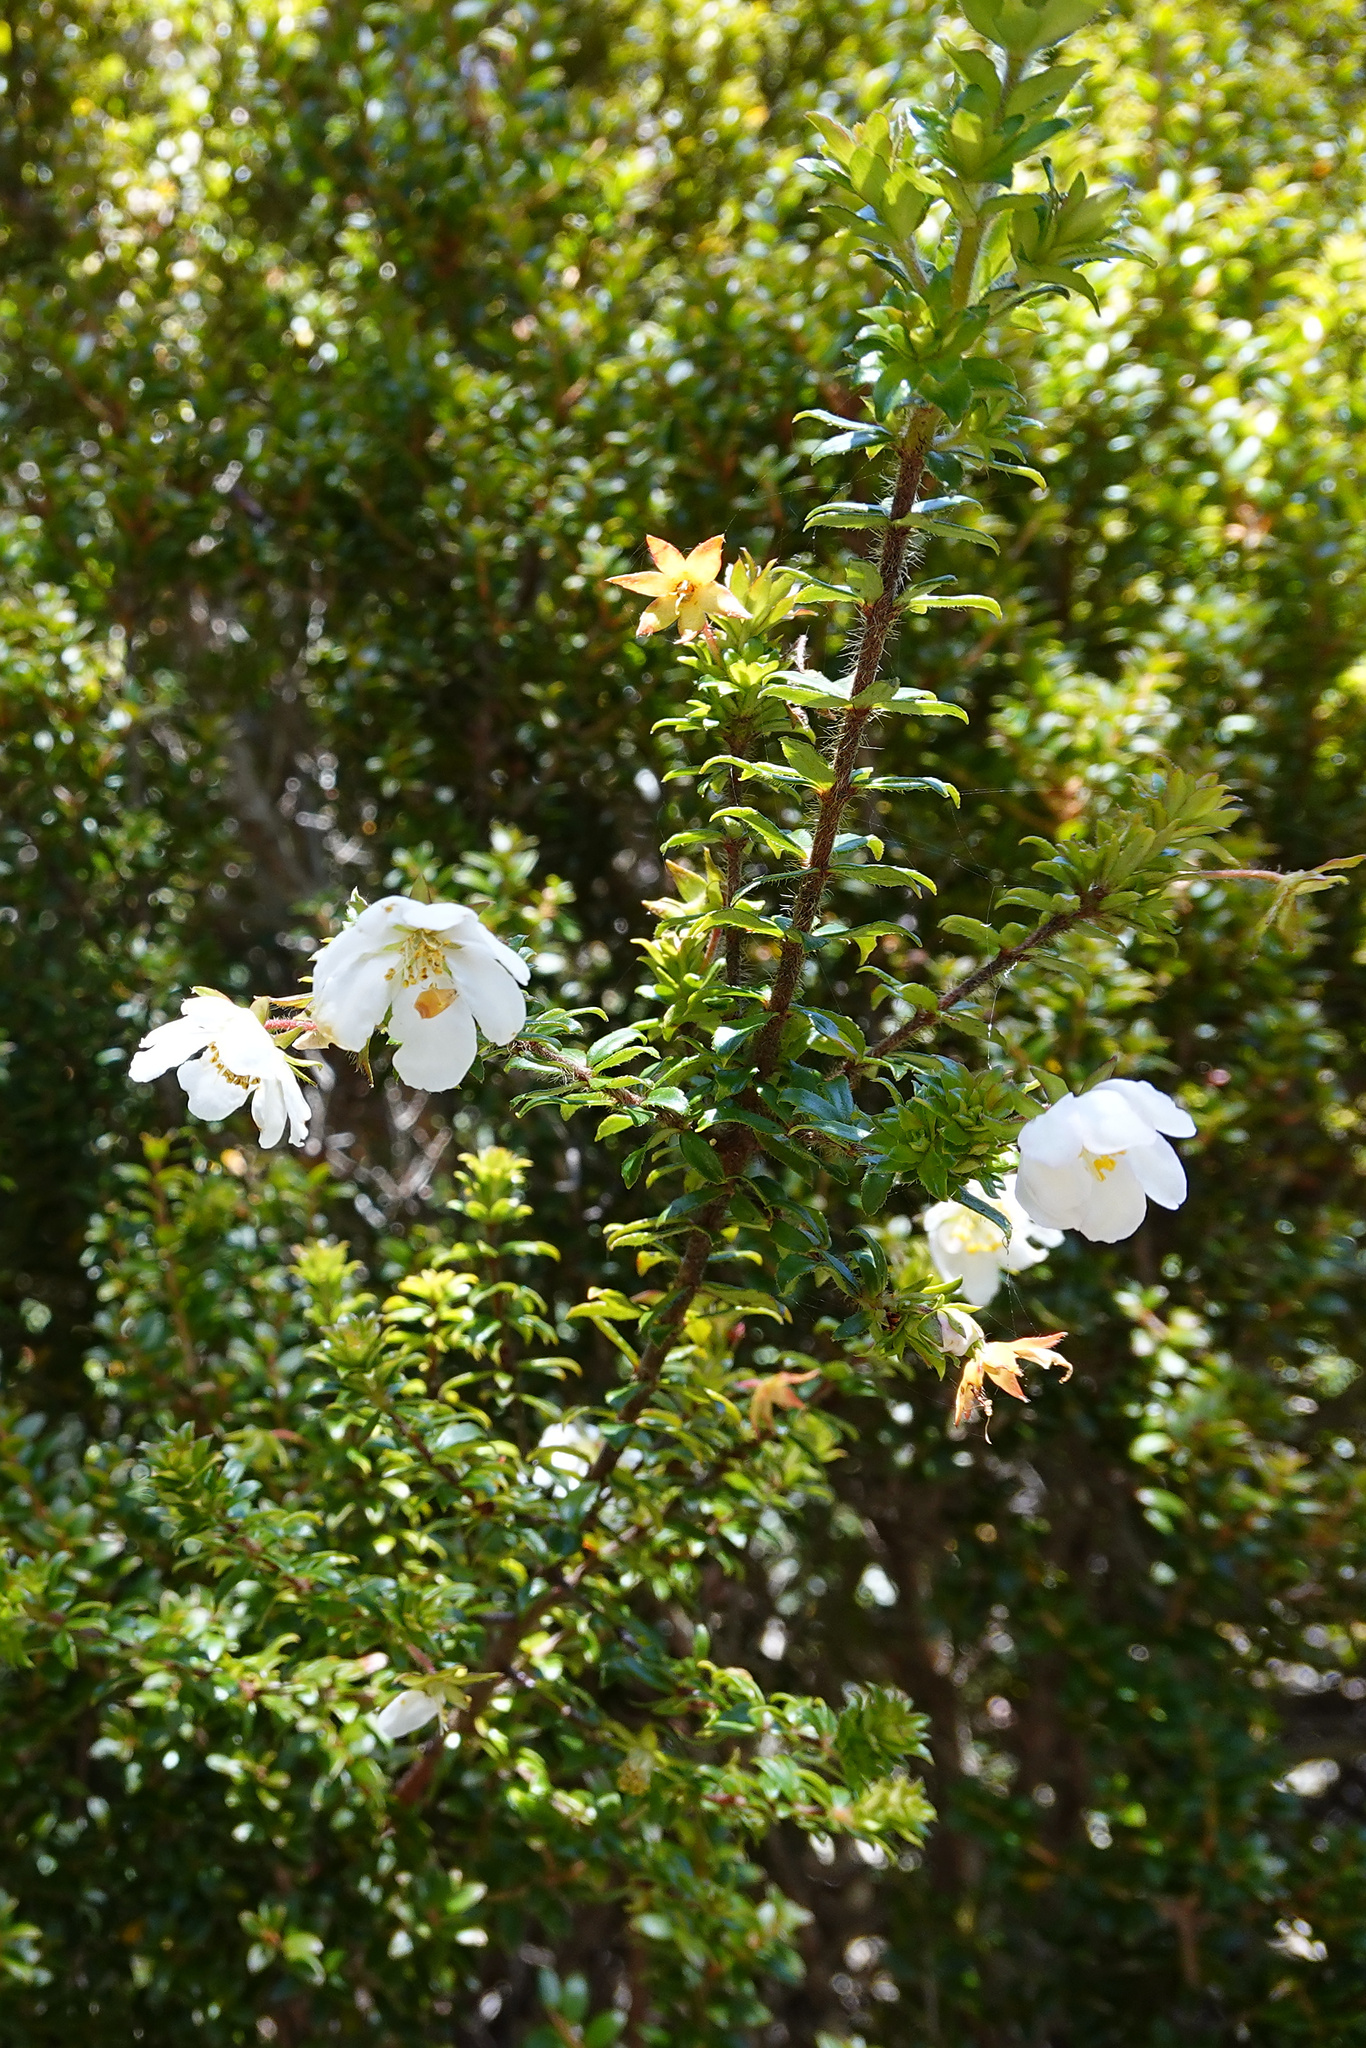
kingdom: Plantae
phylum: Tracheophyta
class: Magnoliopsida
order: Oxalidales
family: Cunoniaceae
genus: Bauera
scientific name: Bauera rubioides
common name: River-rose
